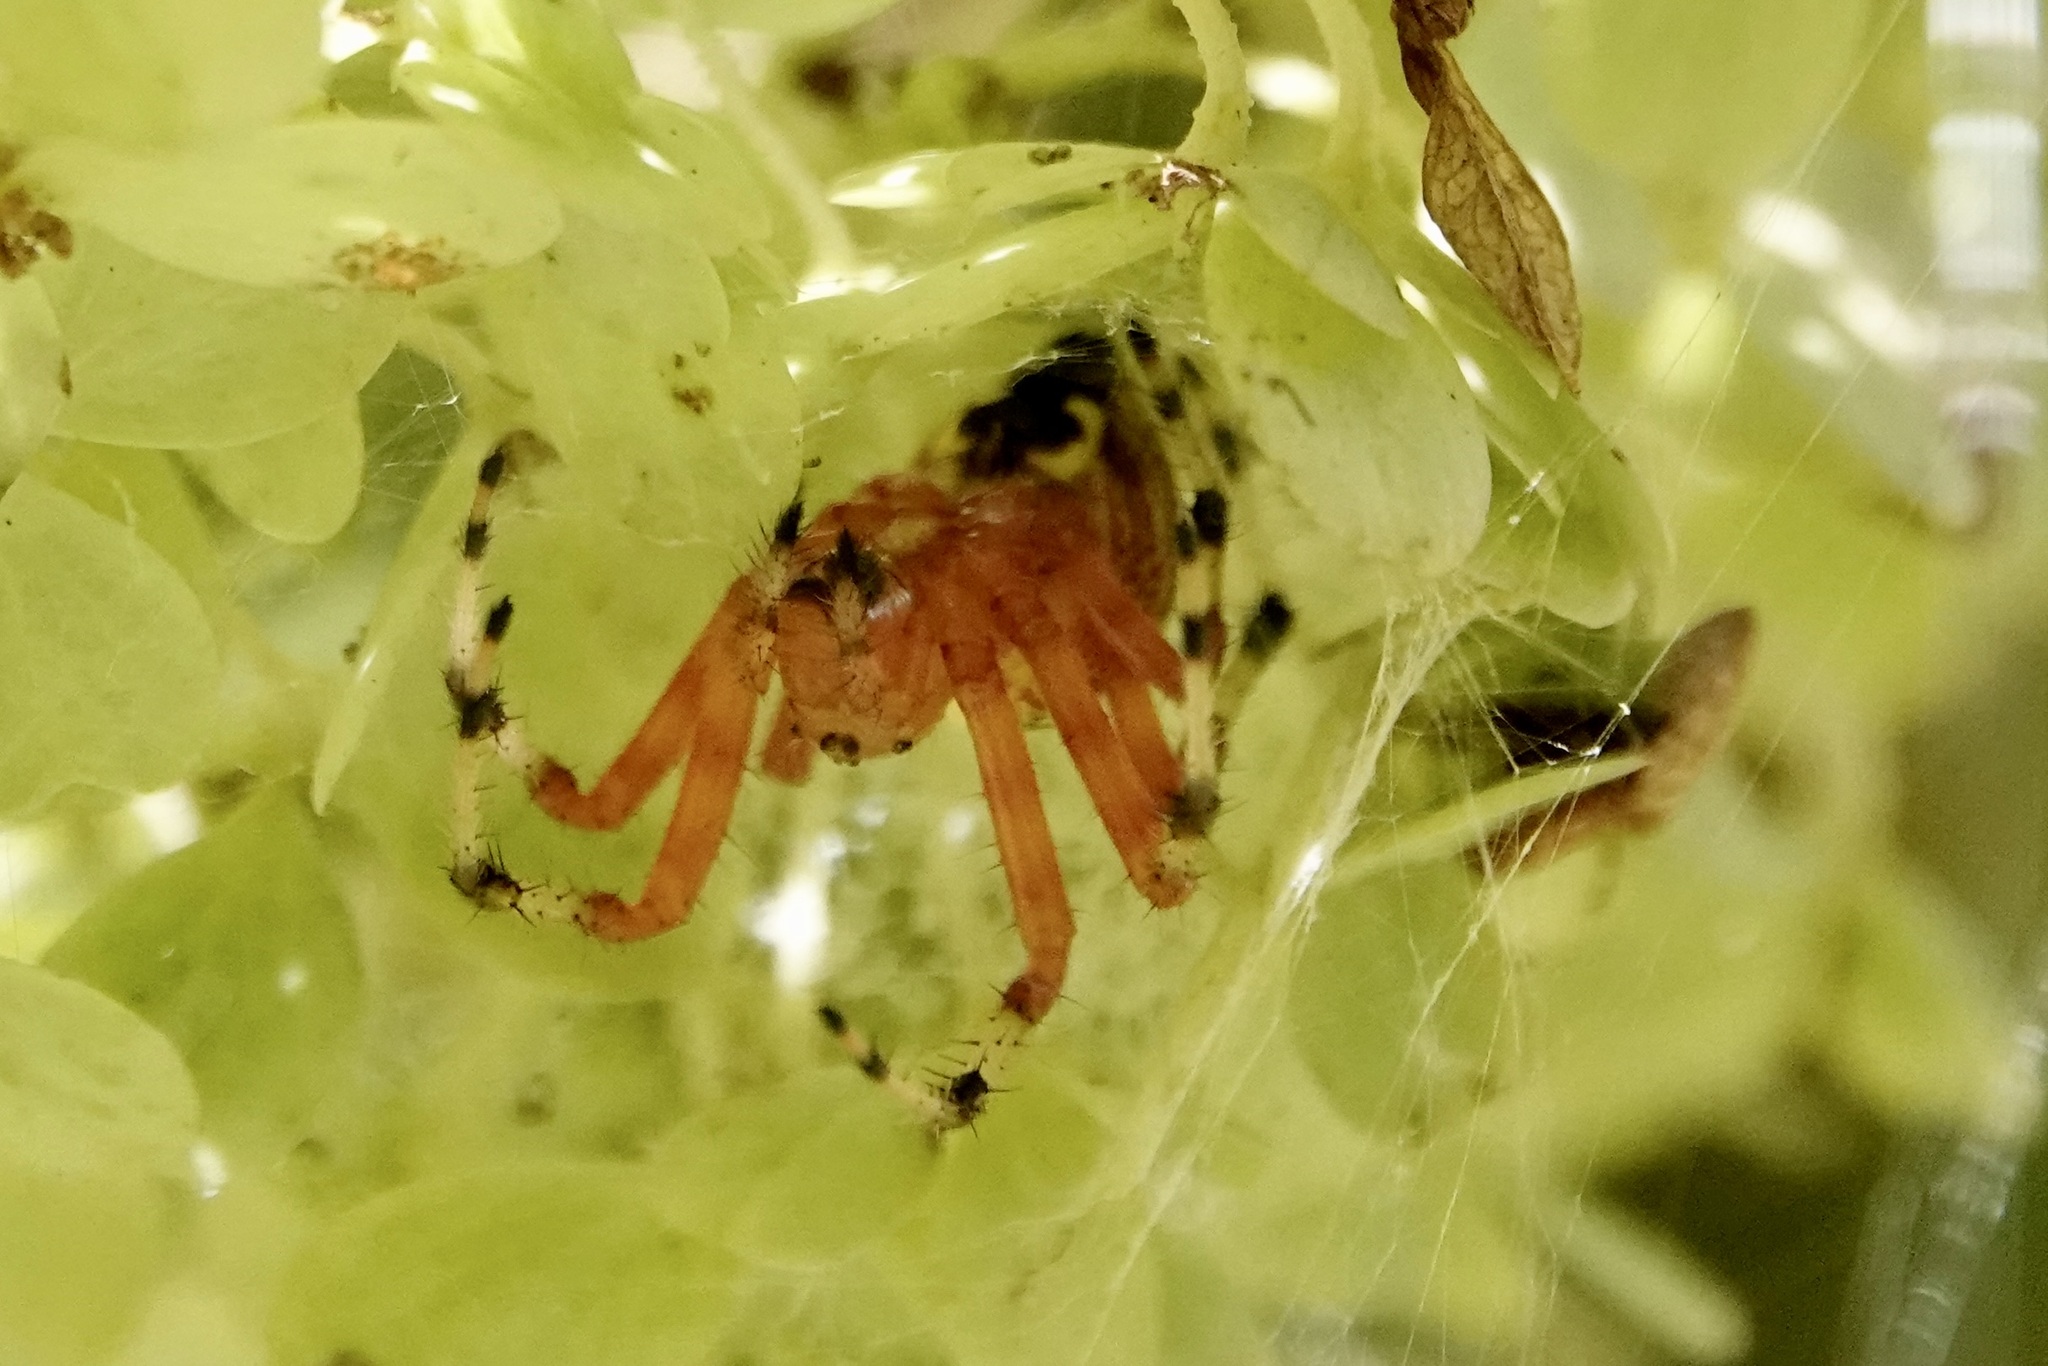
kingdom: Animalia
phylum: Arthropoda
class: Arachnida
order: Araneae
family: Araneidae
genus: Araneus
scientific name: Araneus marmoreus
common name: Marbled orbweaver
